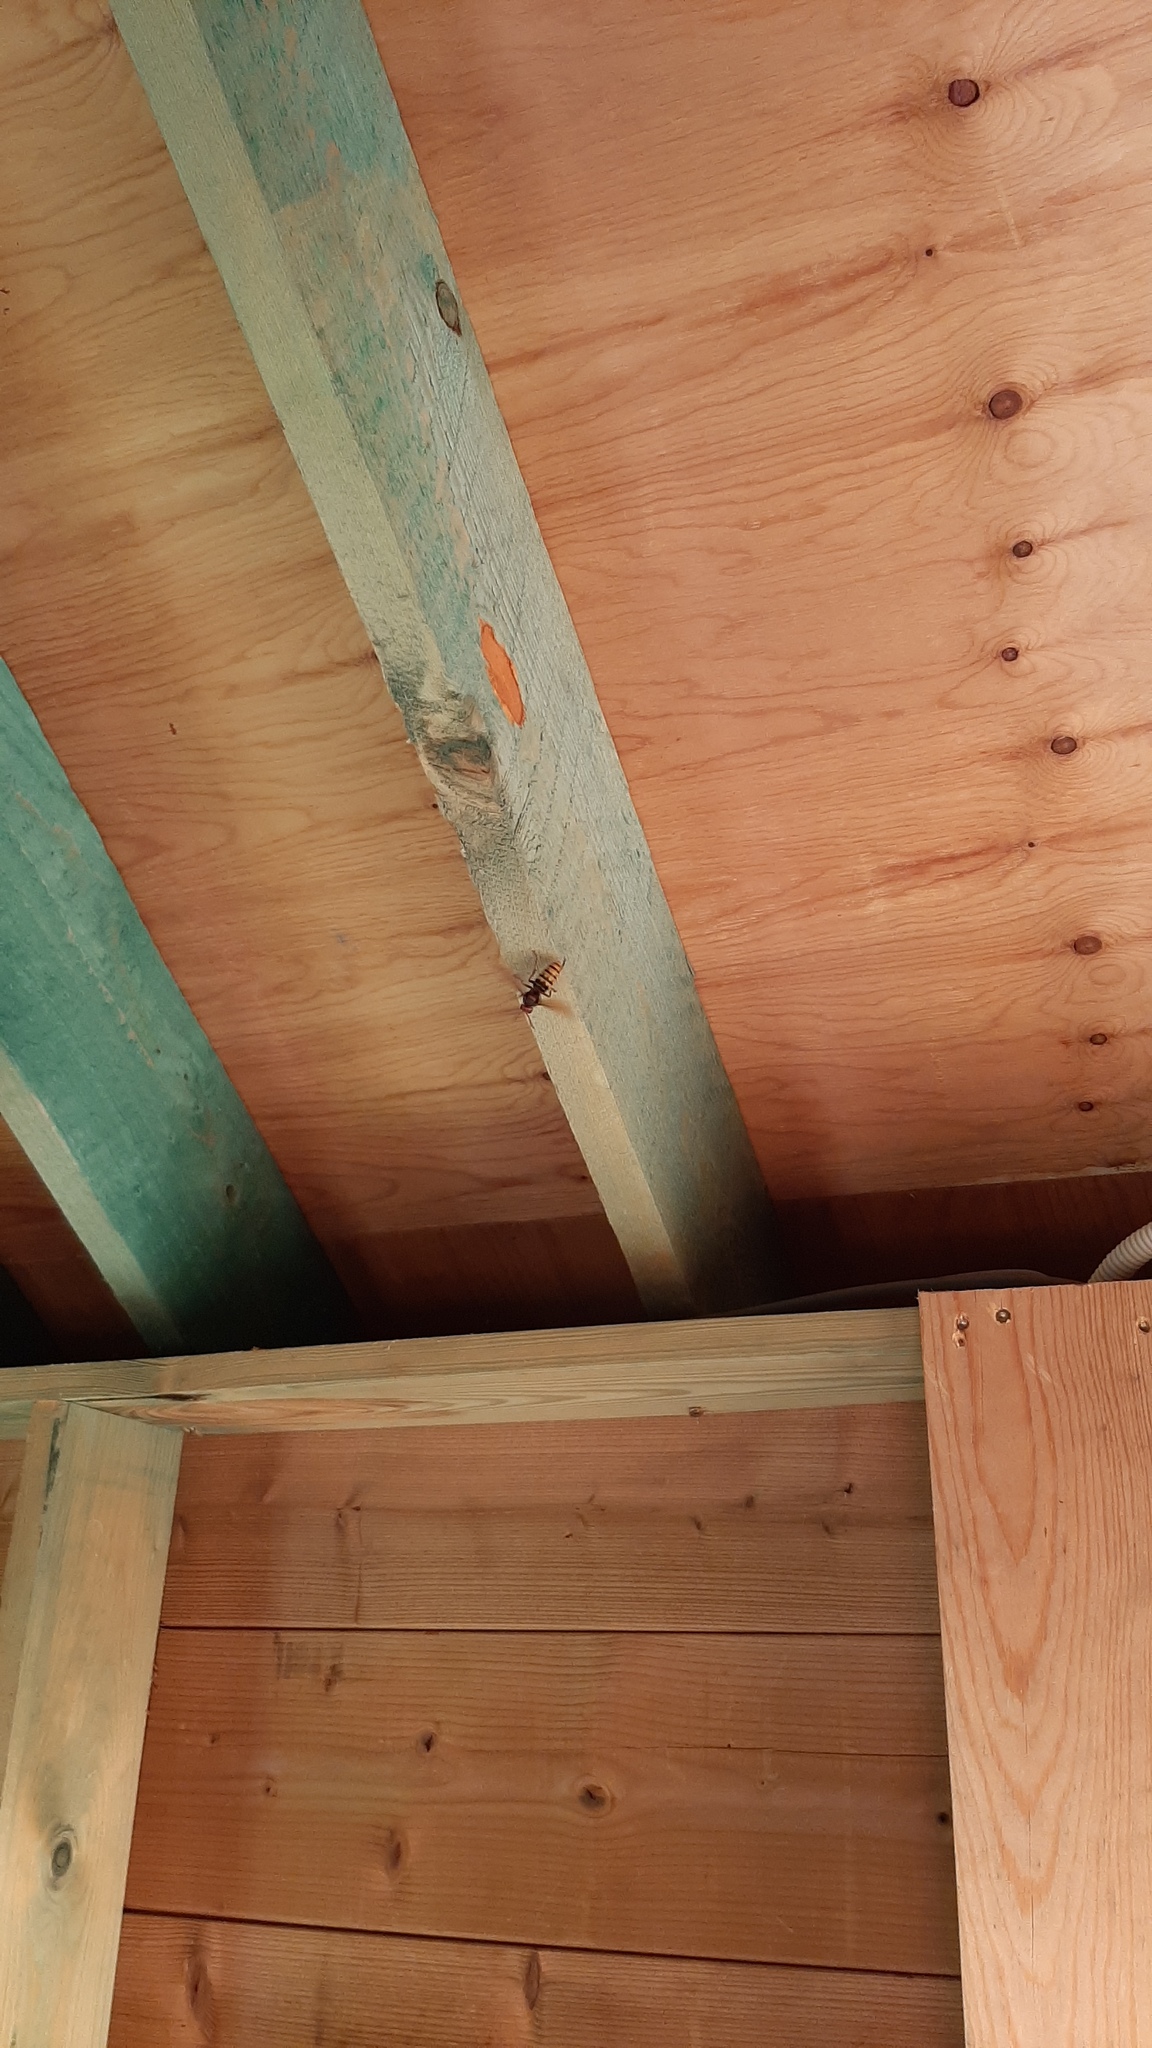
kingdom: Animalia
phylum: Arthropoda
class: Insecta
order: Hymenoptera
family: Vespidae
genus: Vespa
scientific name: Vespa crabro
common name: Hornet
